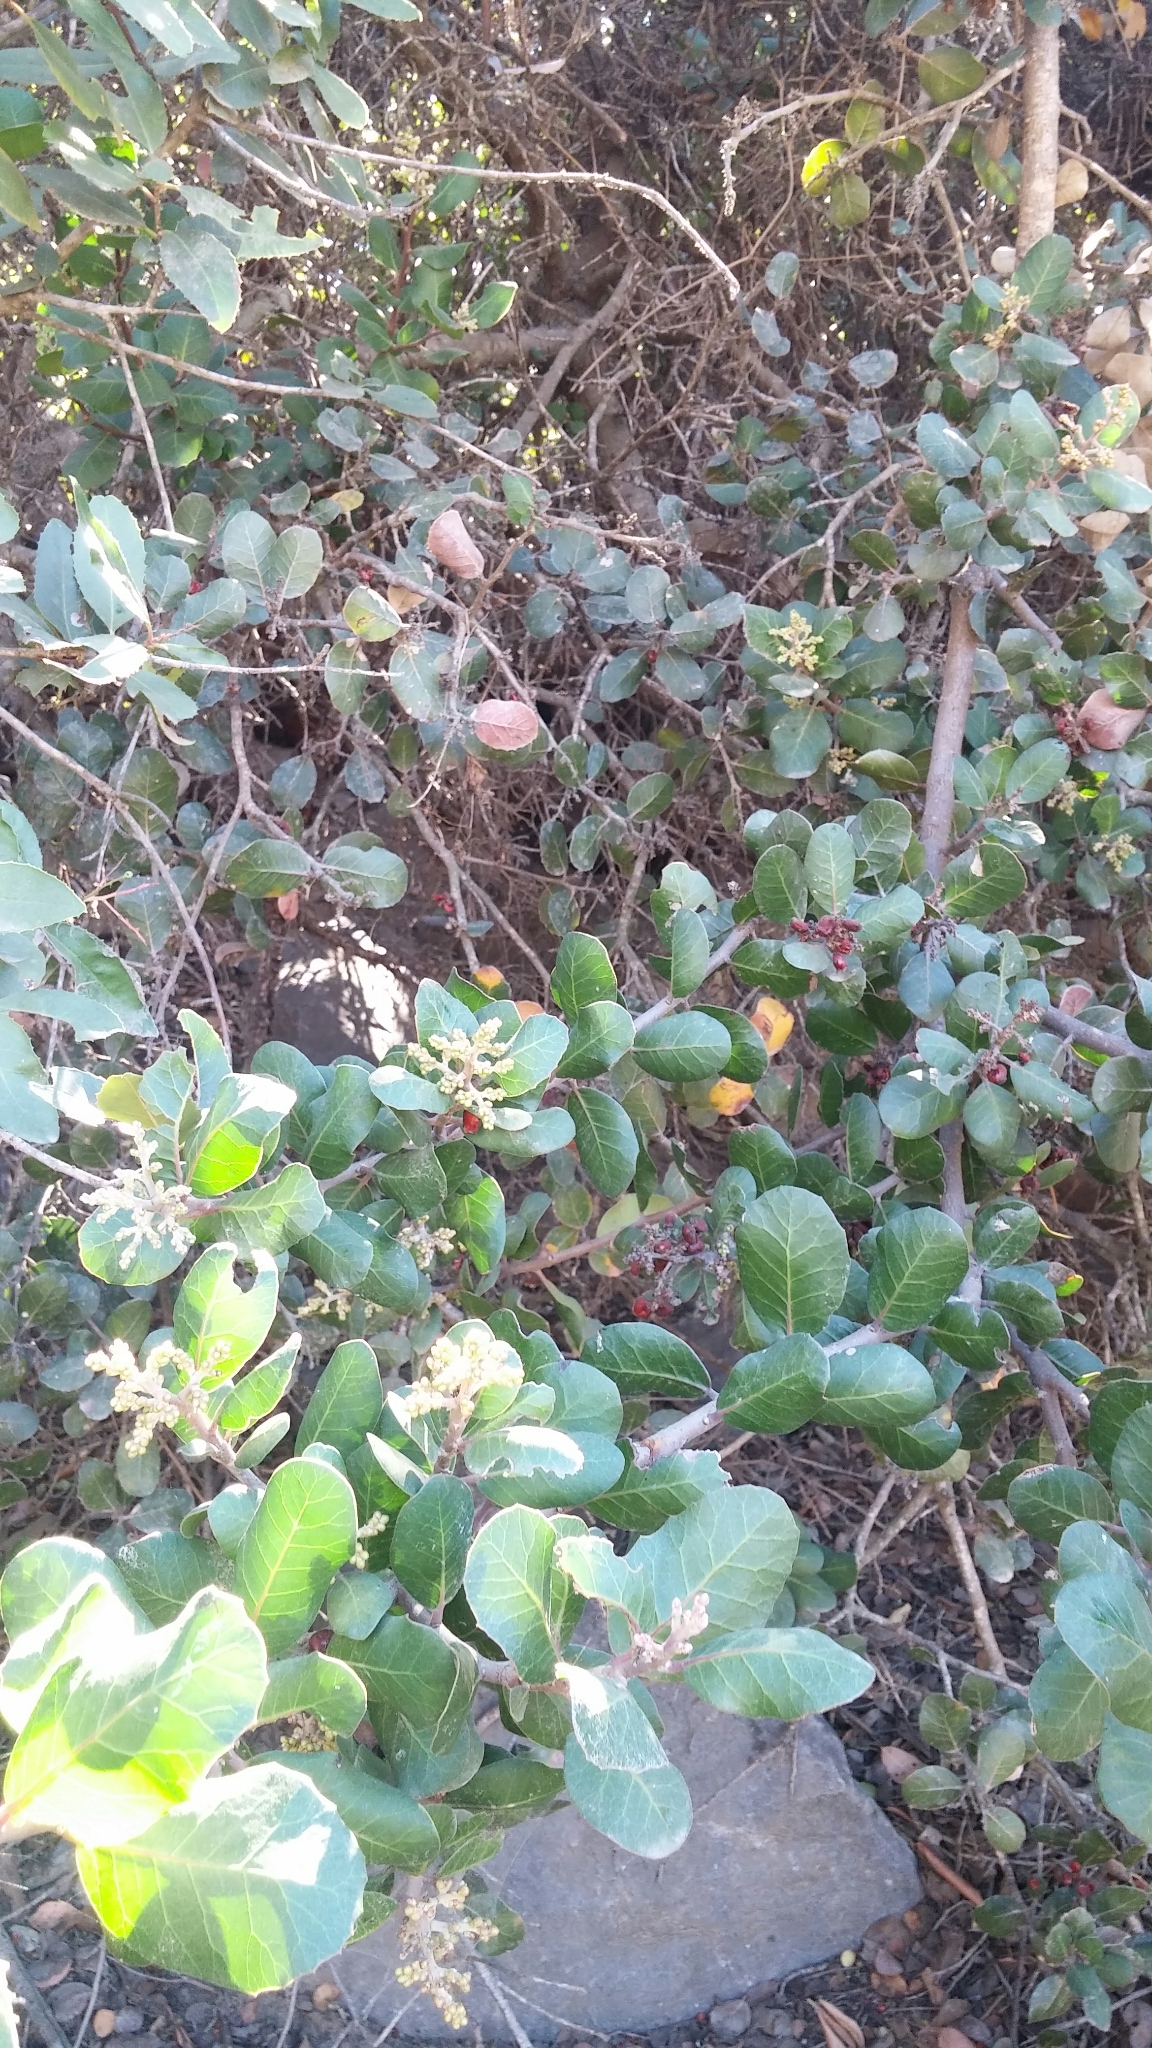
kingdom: Plantae
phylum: Tracheophyta
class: Magnoliopsida
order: Sapindales
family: Anacardiaceae
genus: Rhus
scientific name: Rhus integrifolia
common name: Lemonade sumac
